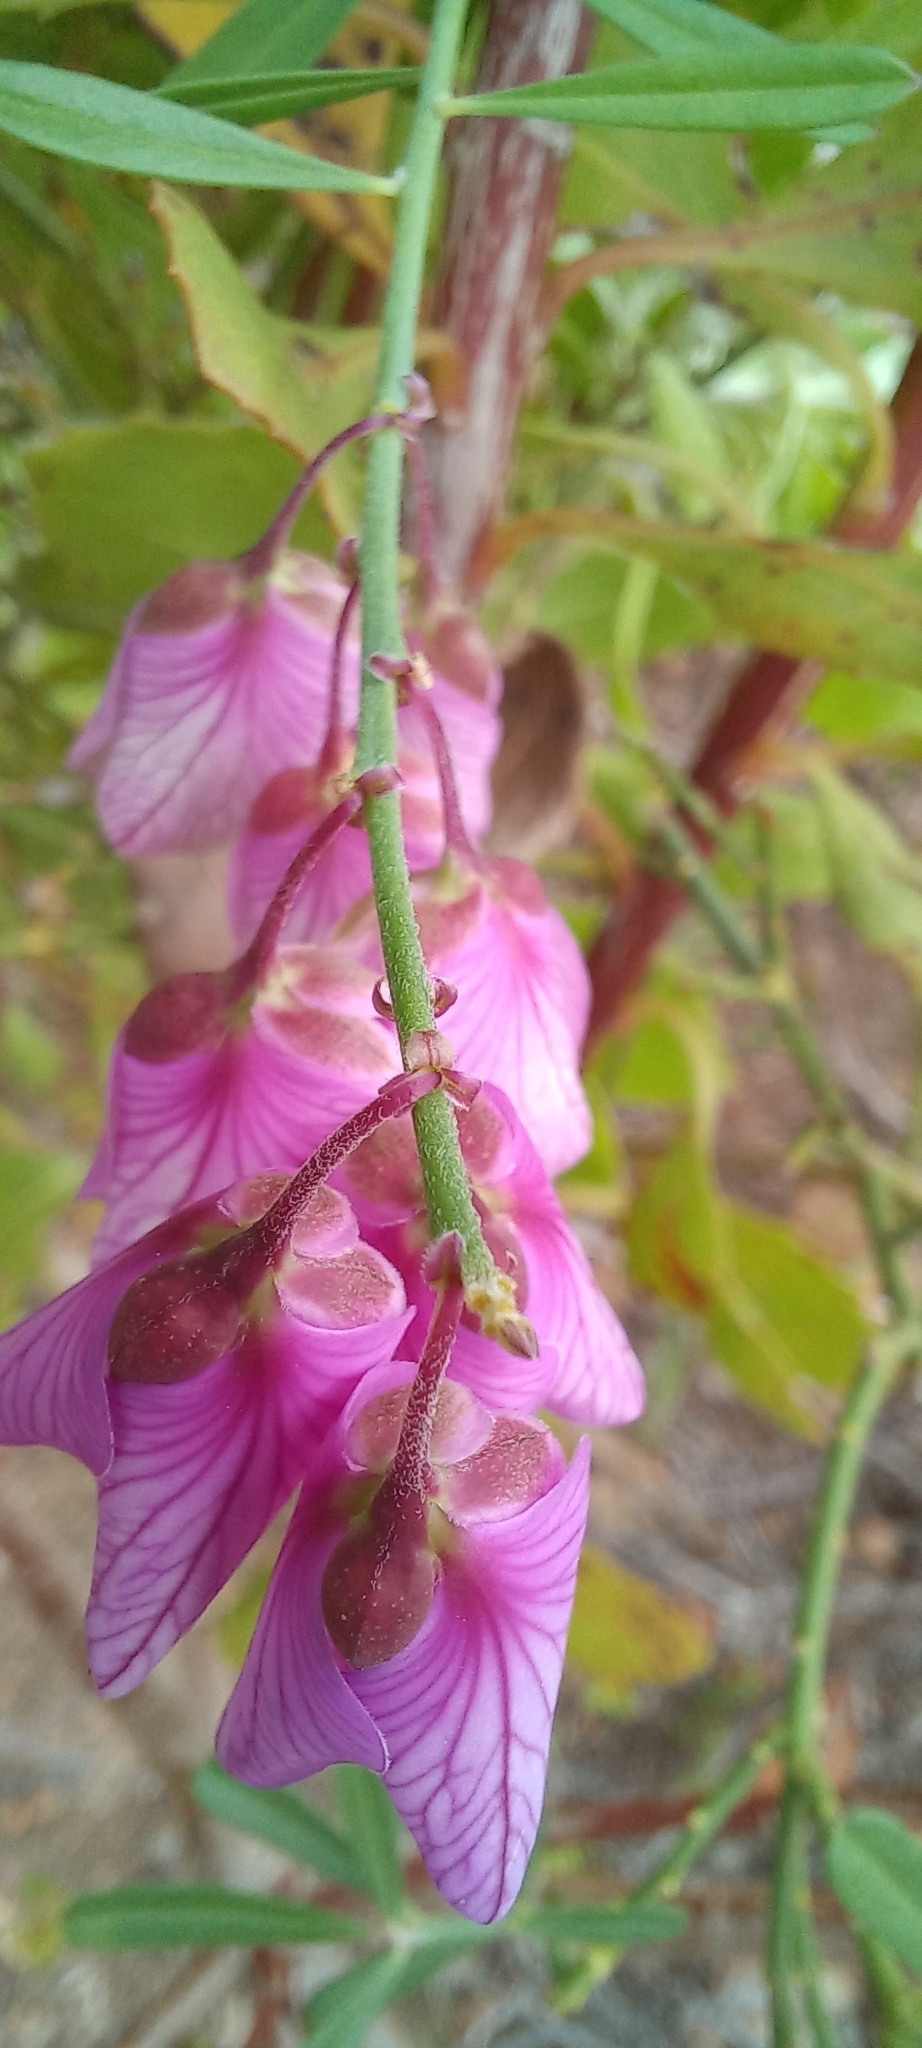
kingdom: Plantae
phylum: Tracheophyta
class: Magnoliopsida
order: Fabales
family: Polygalaceae
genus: Polygala
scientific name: Polygala virgata
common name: Milkwort
